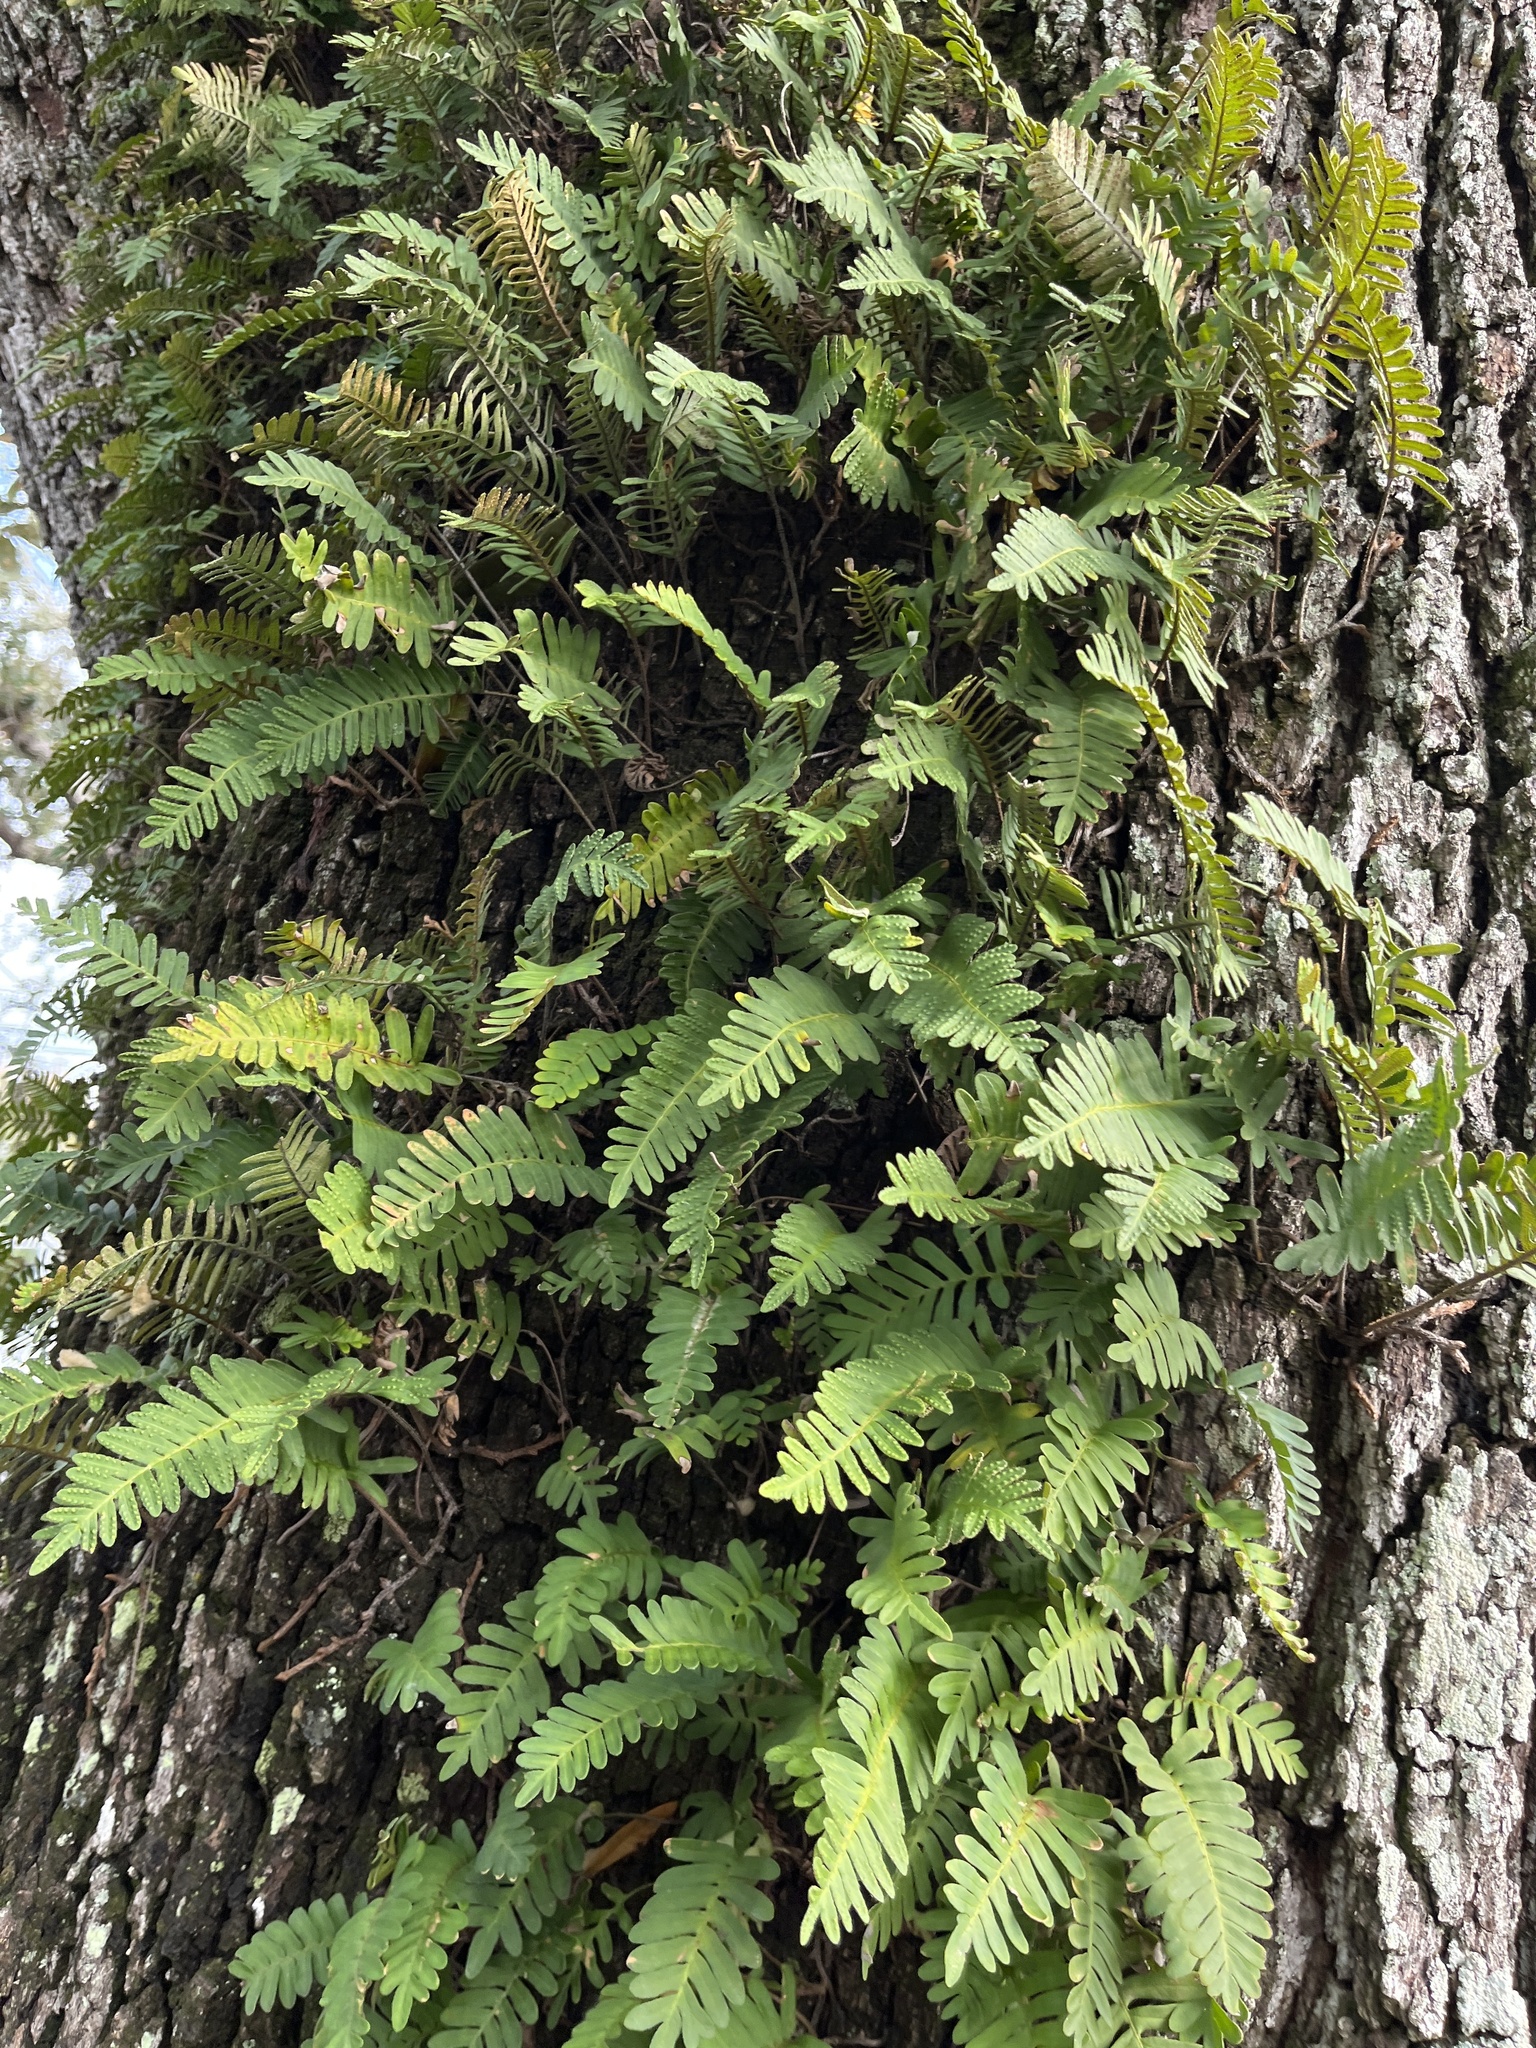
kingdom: Plantae
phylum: Tracheophyta
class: Polypodiopsida
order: Polypodiales
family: Polypodiaceae
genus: Pleopeltis
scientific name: Pleopeltis michauxiana
